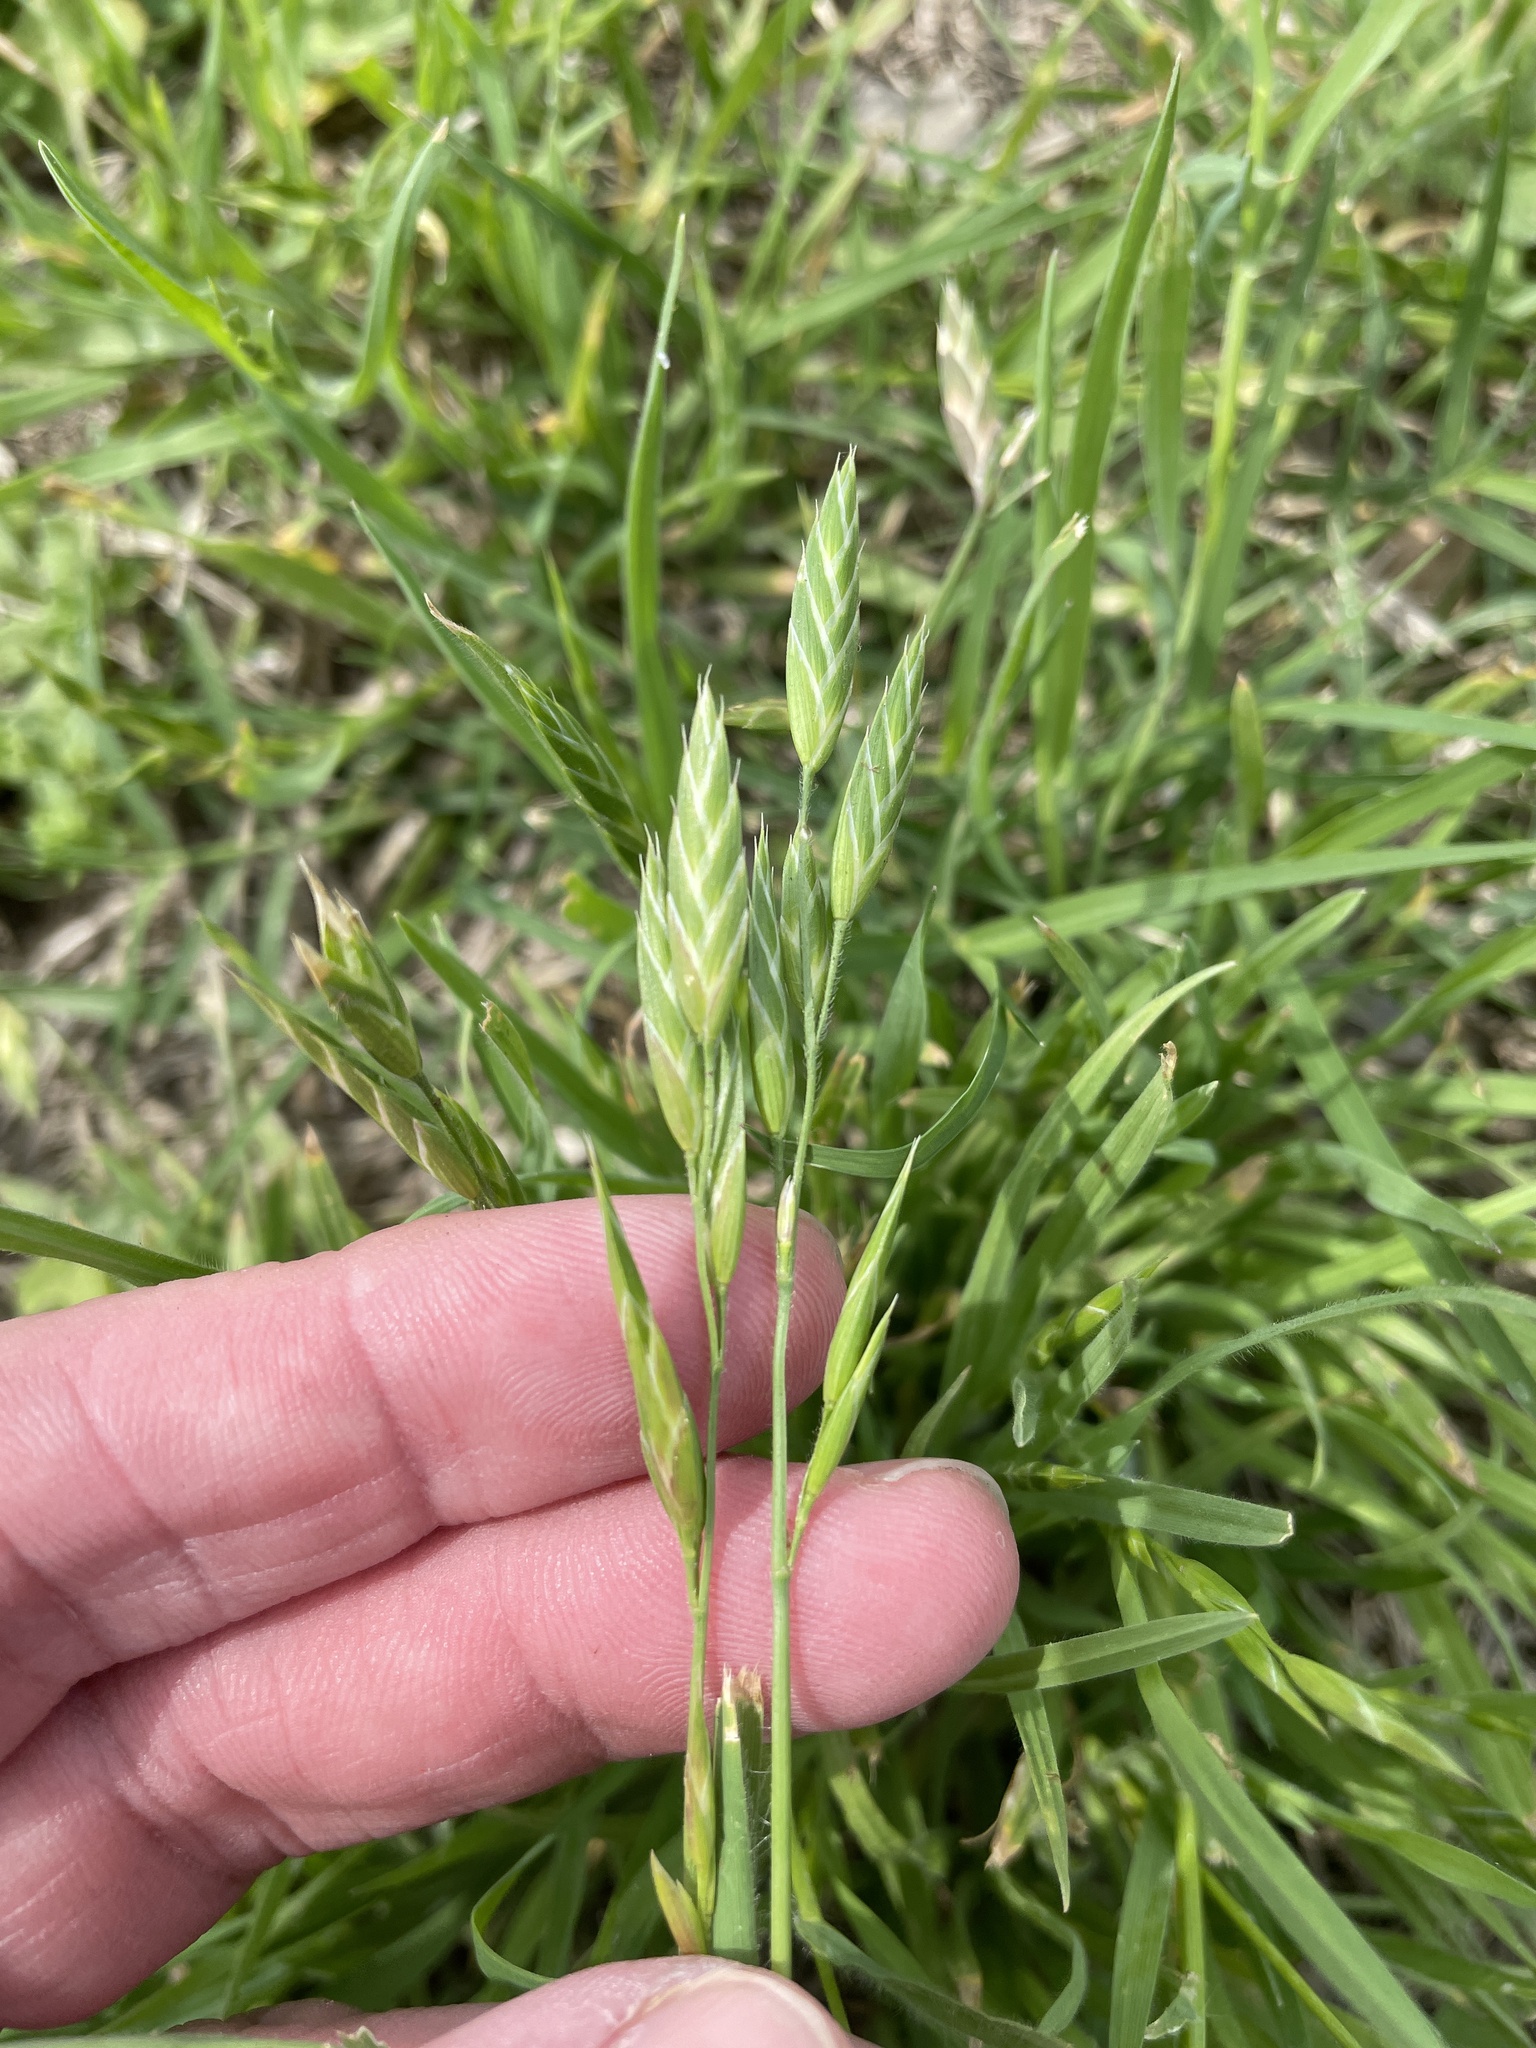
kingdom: Plantae
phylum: Tracheophyta
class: Liliopsida
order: Poales
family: Poaceae
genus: Bromus
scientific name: Bromus catharticus
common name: Rescuegrass
